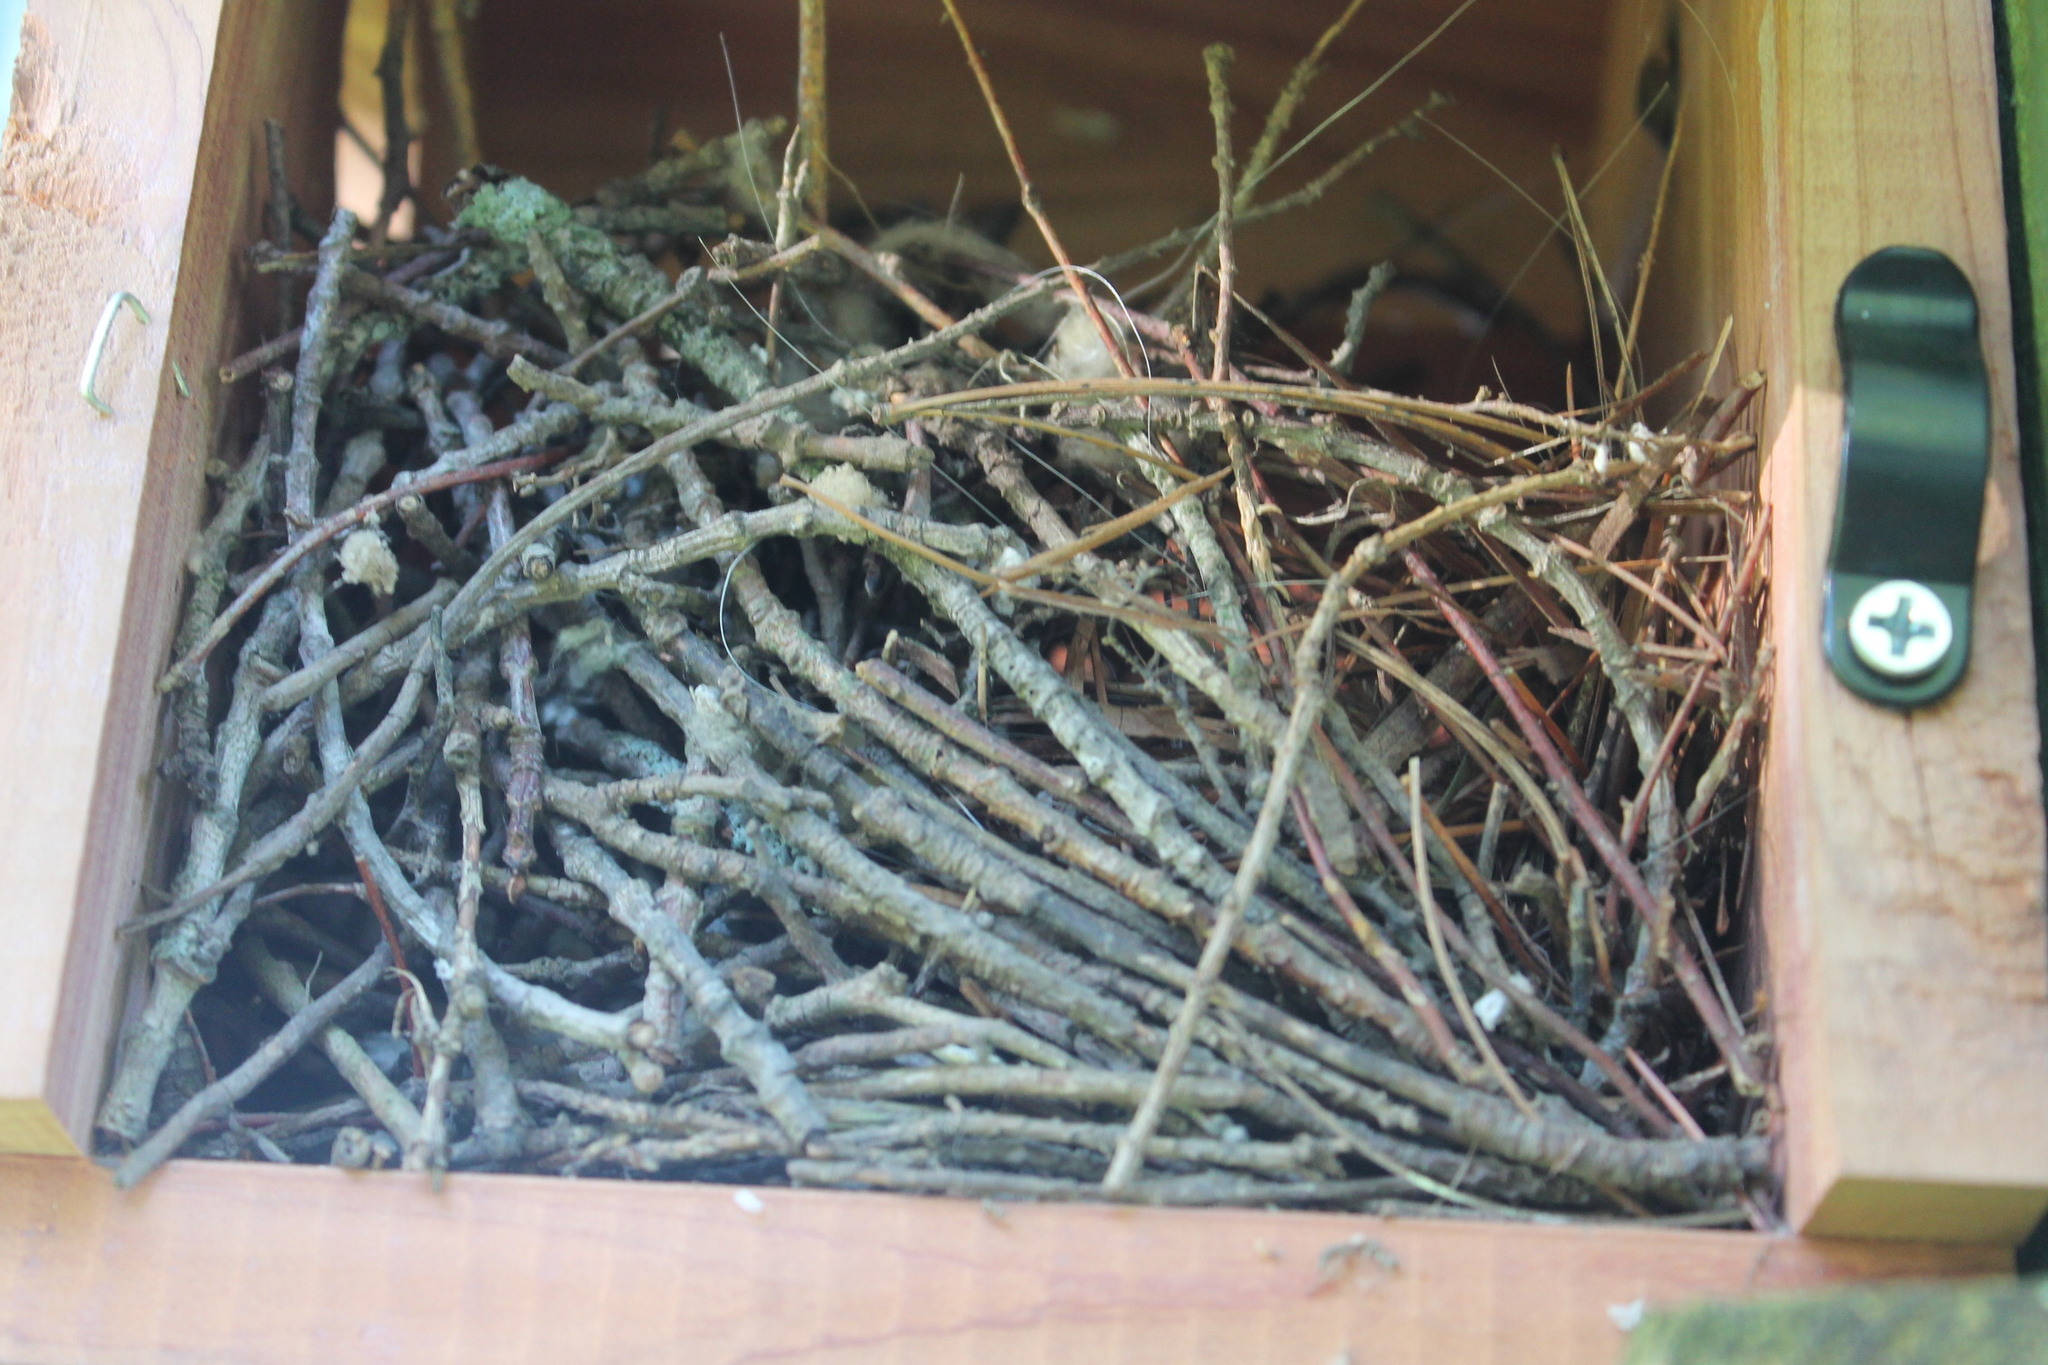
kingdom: Animalia
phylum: Chordata
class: Aves
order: Passeriformes
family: Troglodytidae
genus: Troglodytes
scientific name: Troglodytes aedon
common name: House wren
